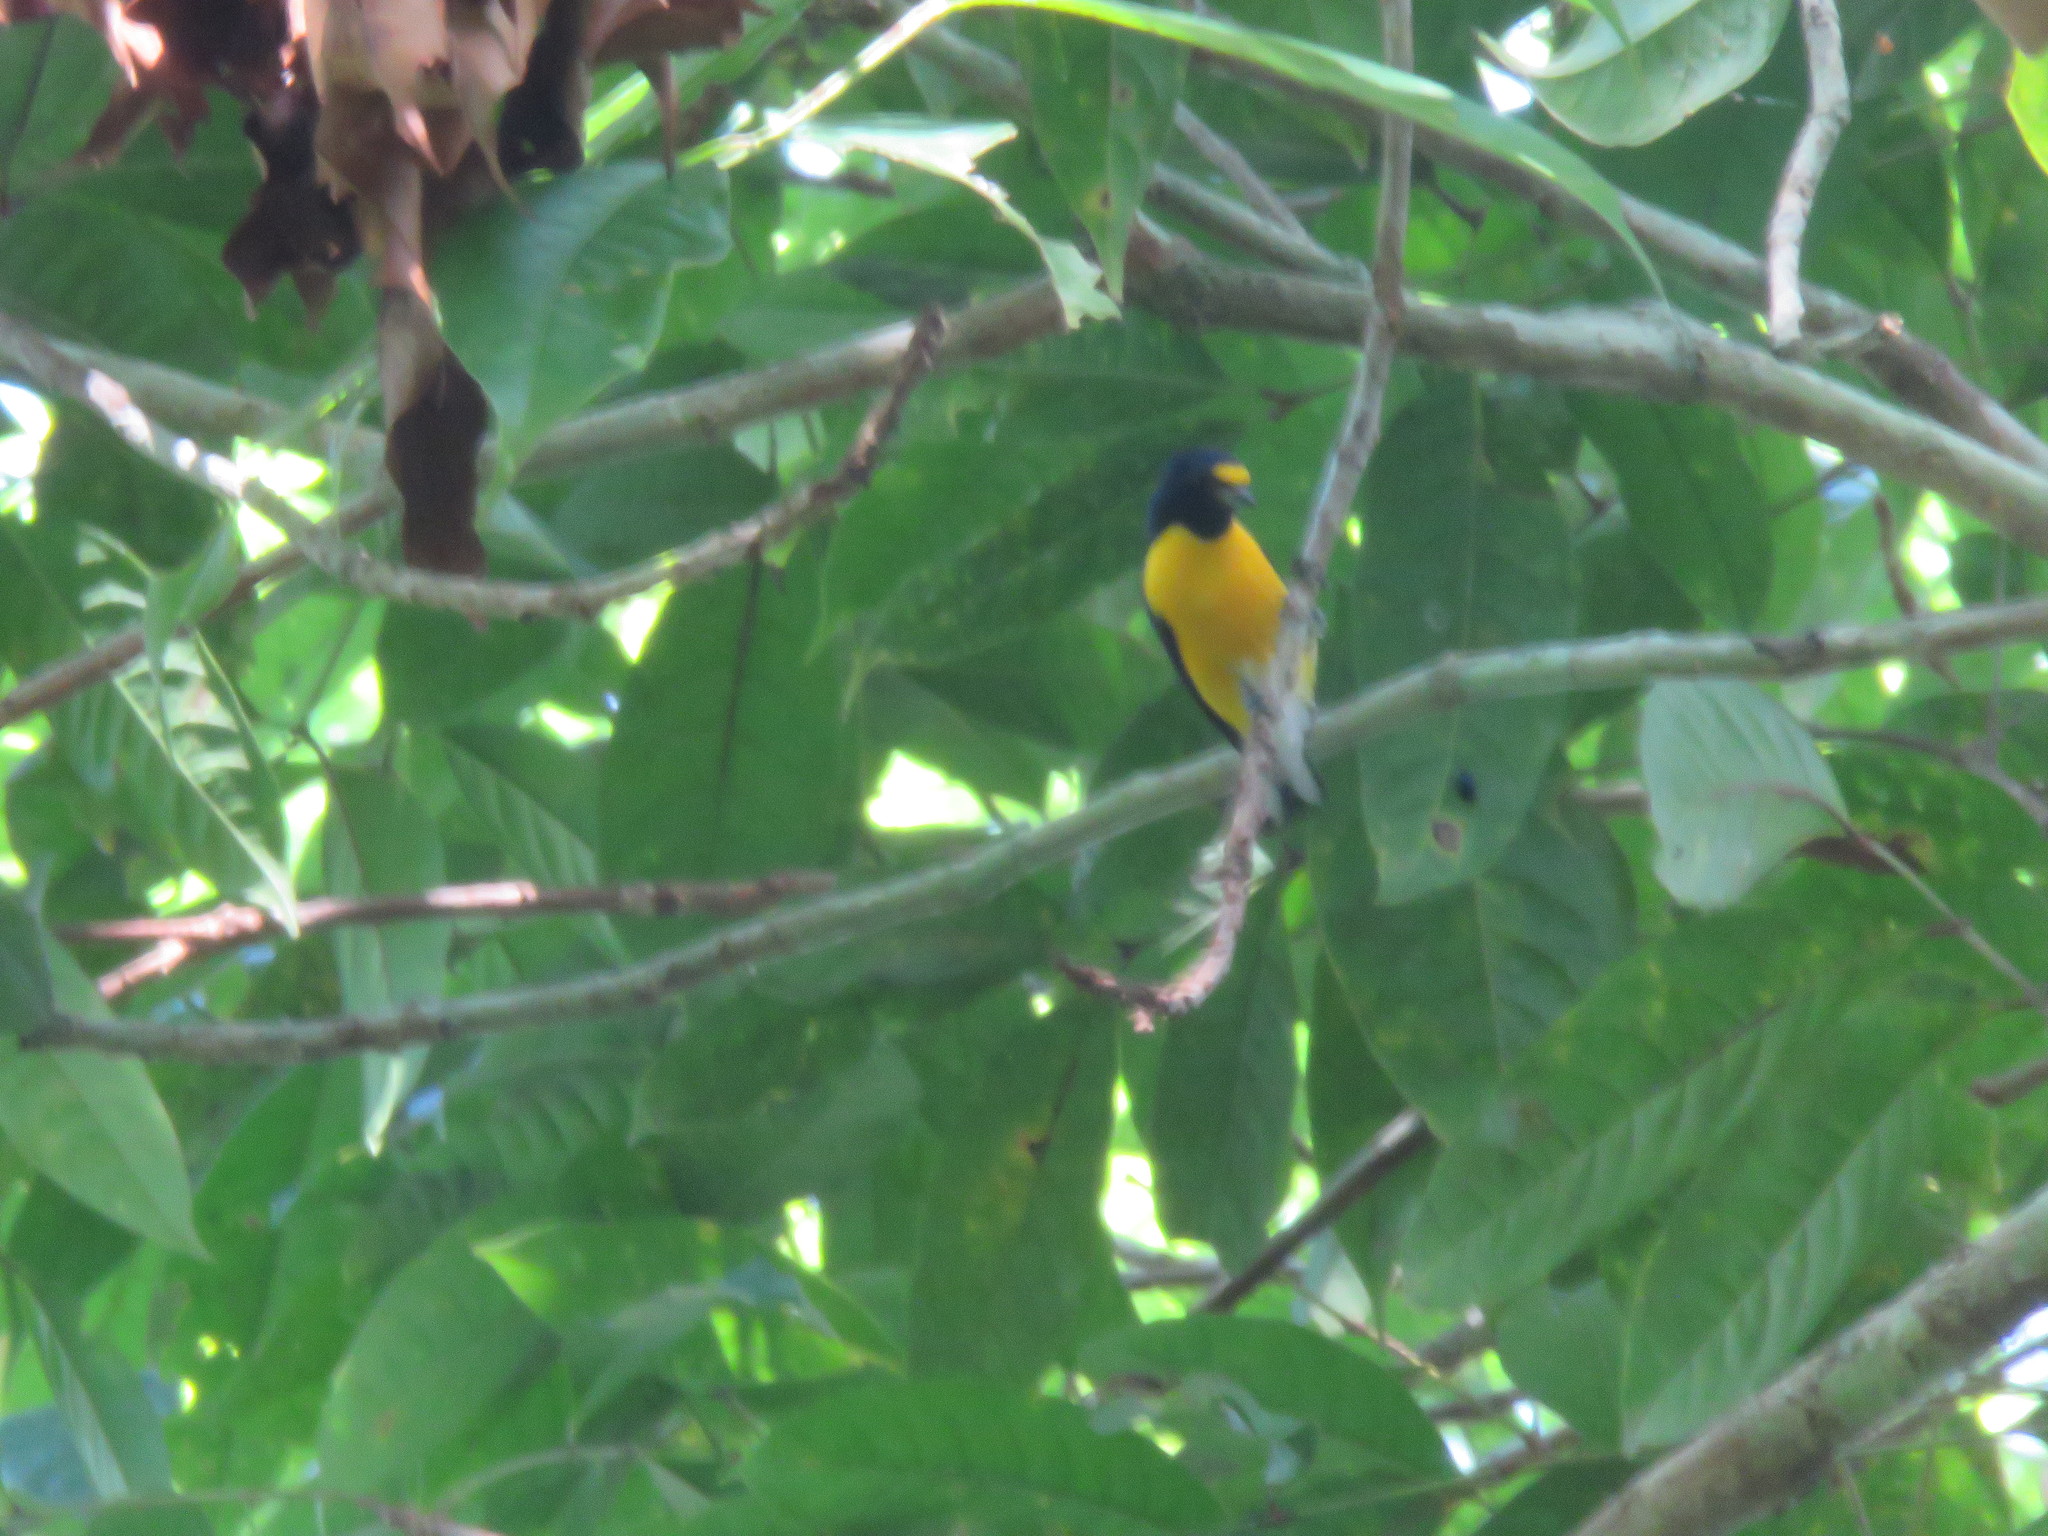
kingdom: Animalia
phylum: Chordata
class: Aves
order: Passeriformes
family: Fringillidae
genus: Euphonia
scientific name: Euphonia minuta
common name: White-vented euphonia
